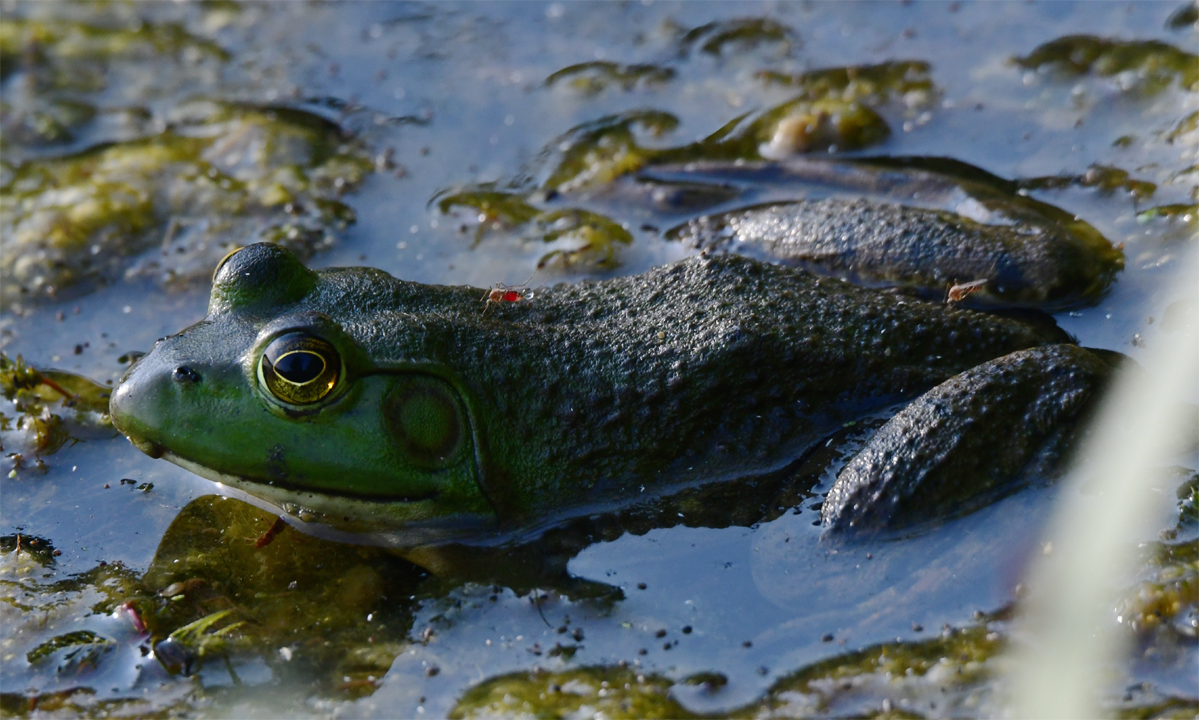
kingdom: Animalia
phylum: Chordata
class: Amphibia
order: Anura
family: Ranidae
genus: Lithobates
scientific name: Lithobates catesbeianus
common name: American bullfrog
